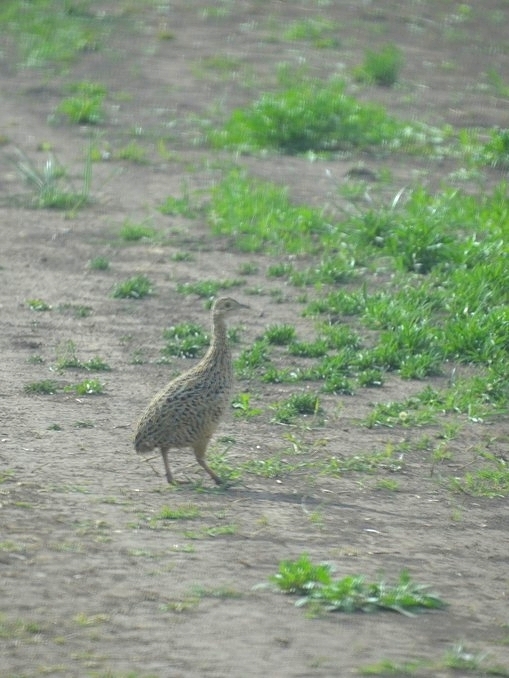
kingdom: Animalia
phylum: Chordata
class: Aves
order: Tinamiformes
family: Tinamidae
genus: Nothura
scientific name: Nothura maculosa
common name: Spotted nothura
